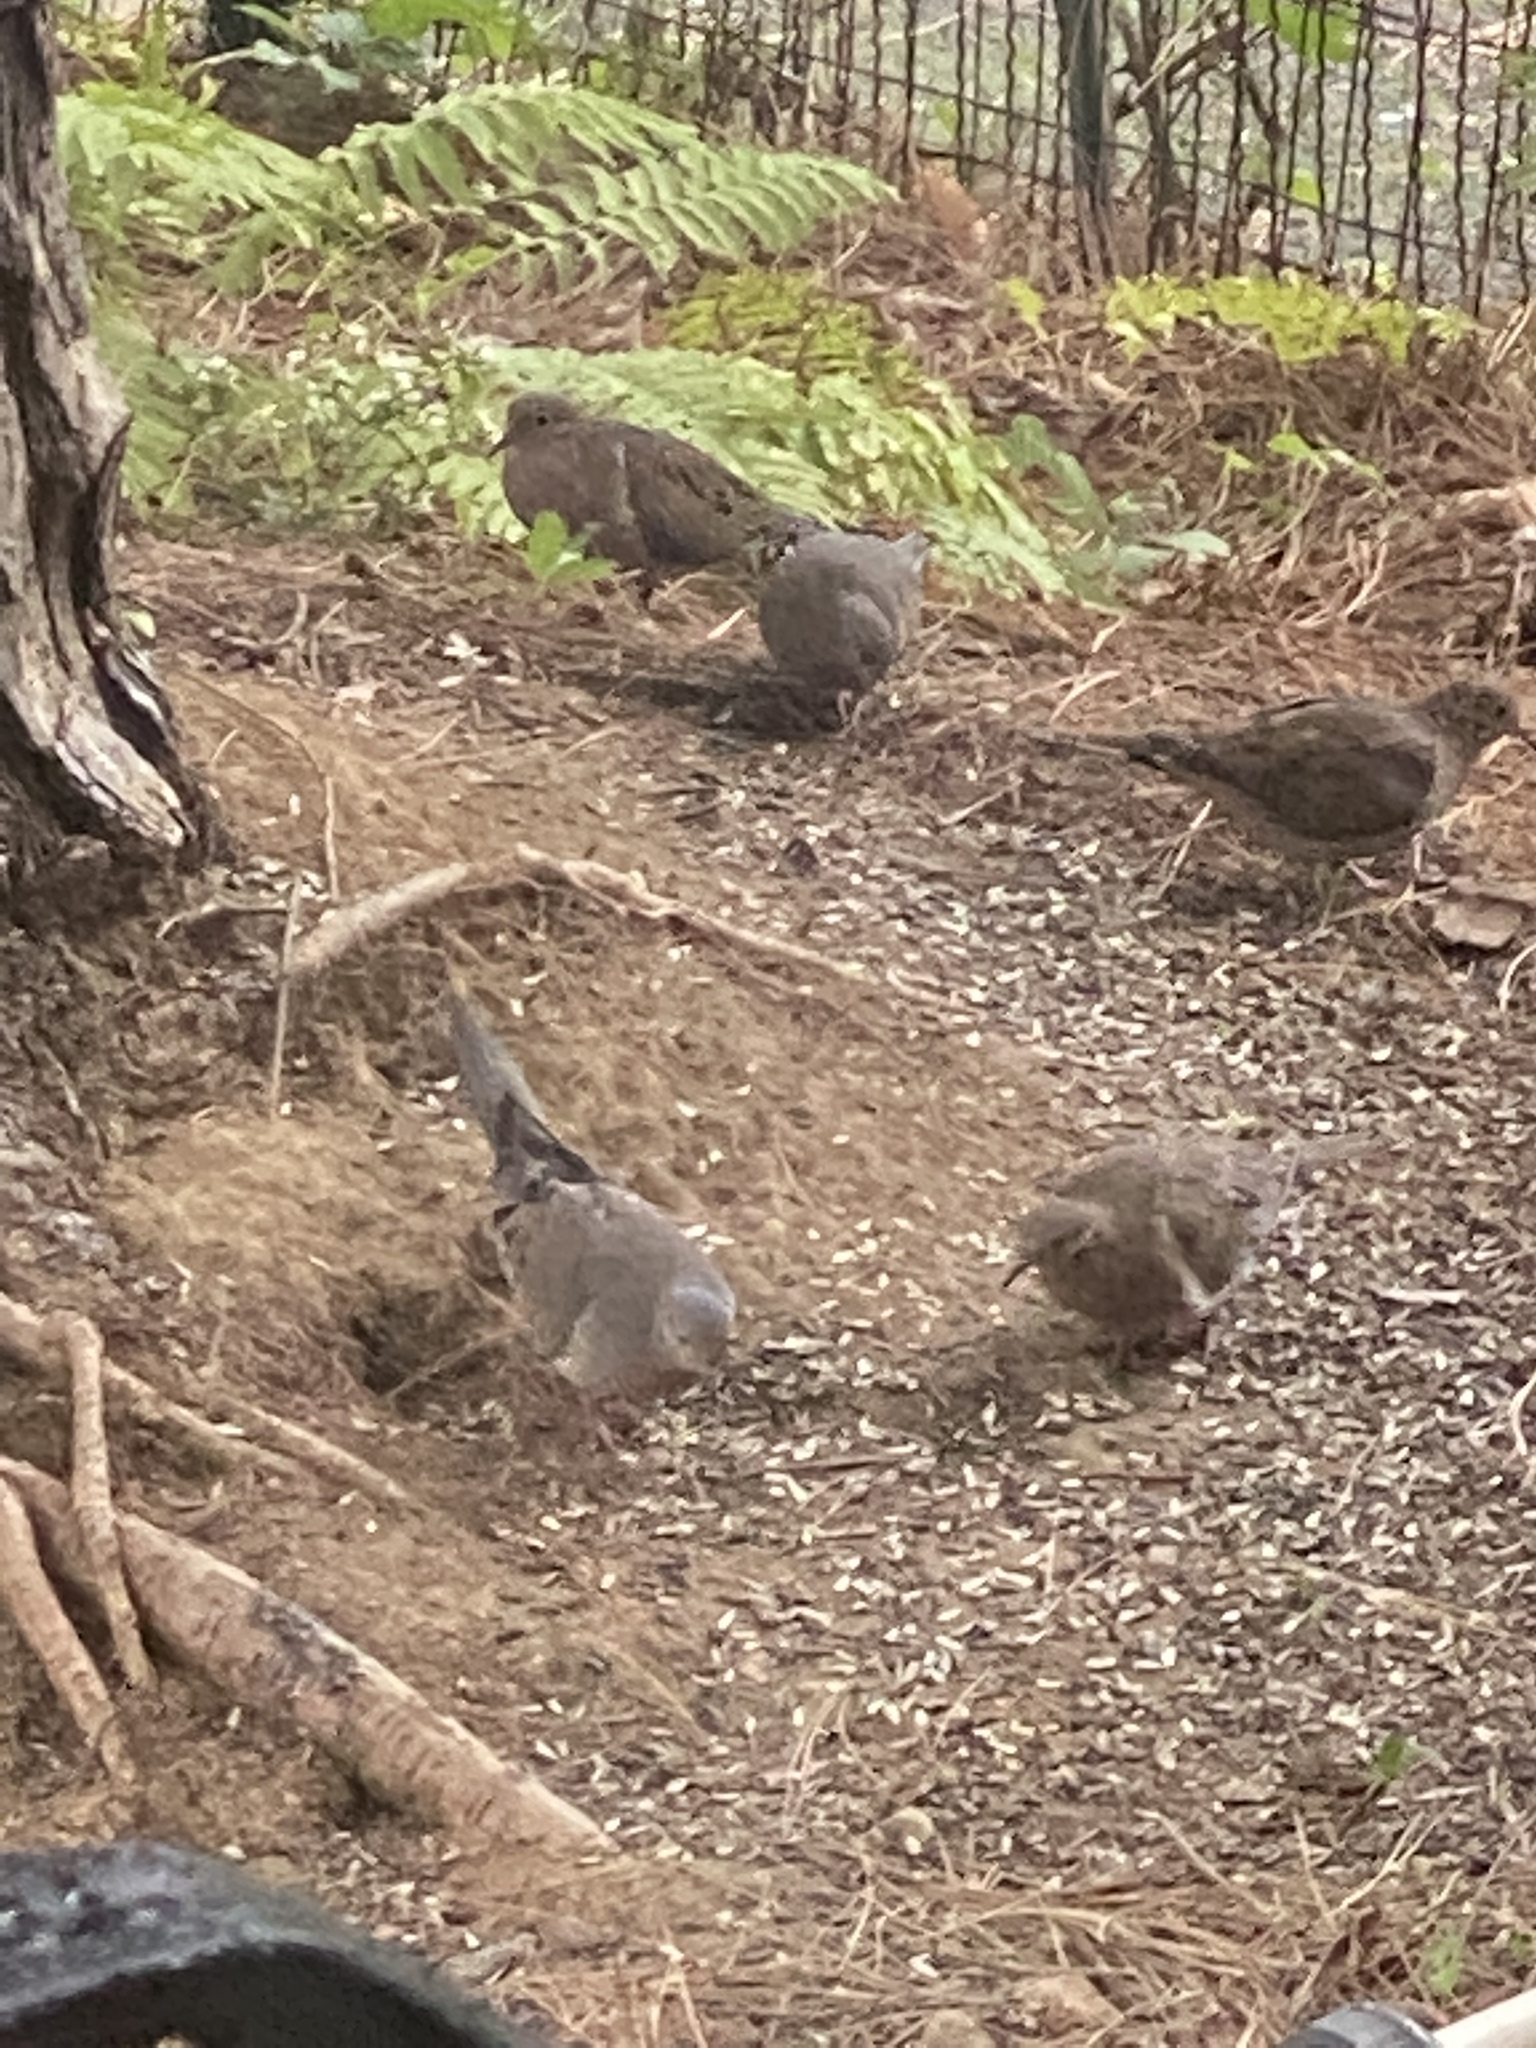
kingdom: Animalia
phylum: Chordata
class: Aves
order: Columbiformes
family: Columbidae
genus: Zenaida
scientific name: Zenaida macroura
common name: Mourning dove
